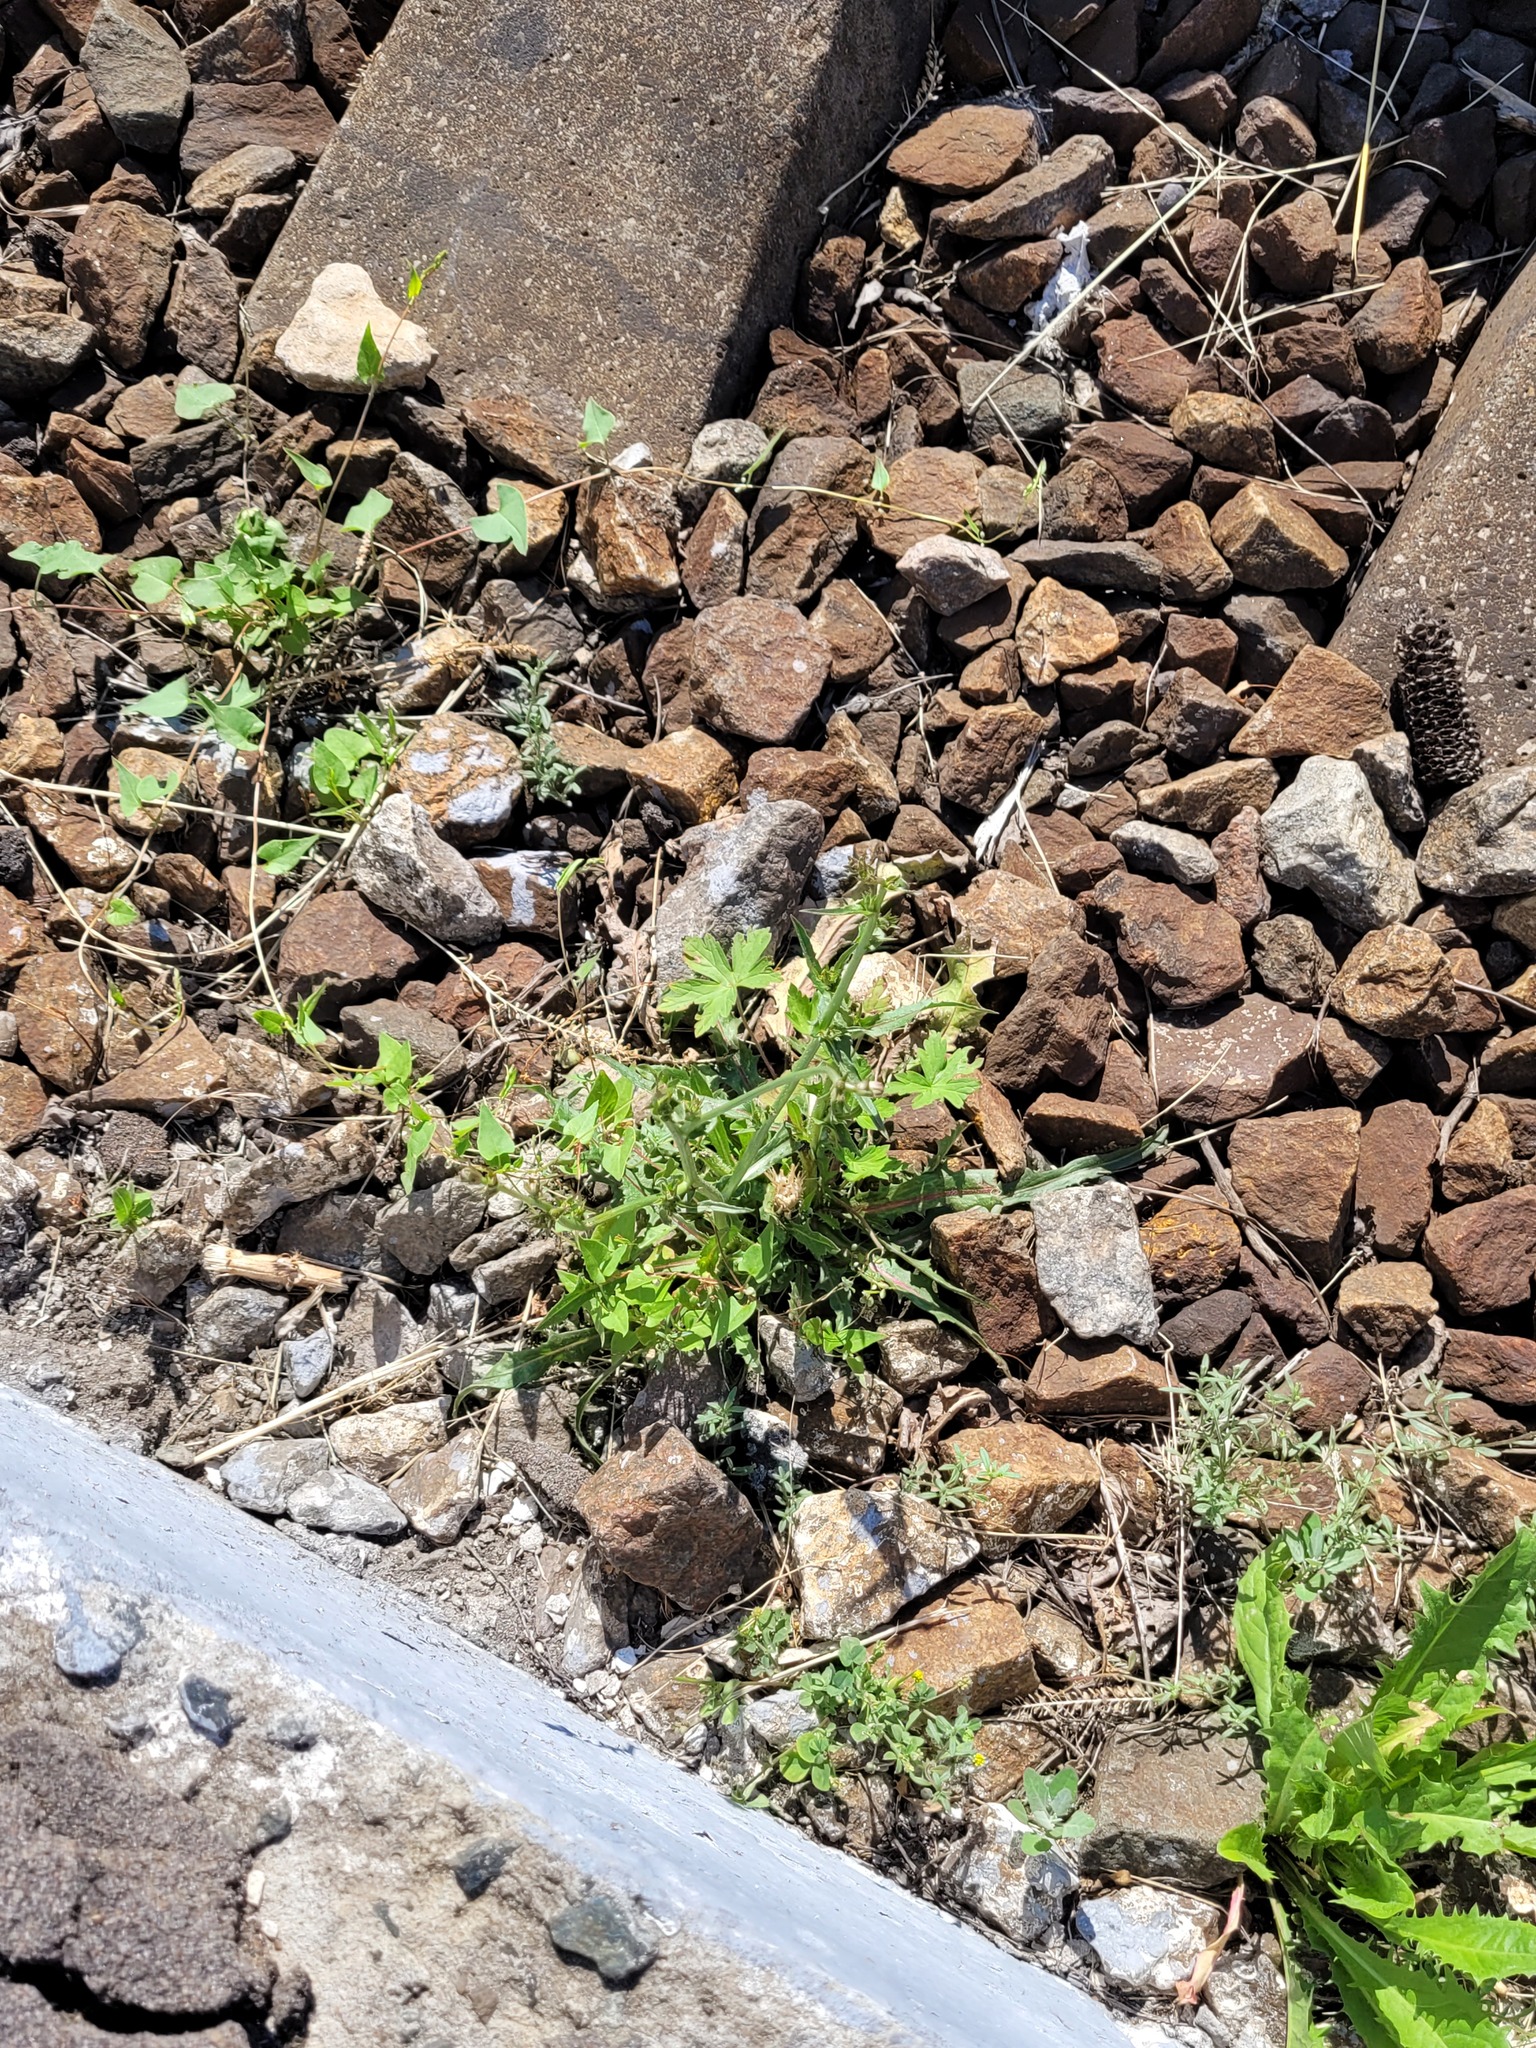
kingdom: Plantae
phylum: Tracheophyta
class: Magnoliopsida
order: Asterales
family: Asteraceae
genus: Cichorium
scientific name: Cichorium intybus
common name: Chicory
